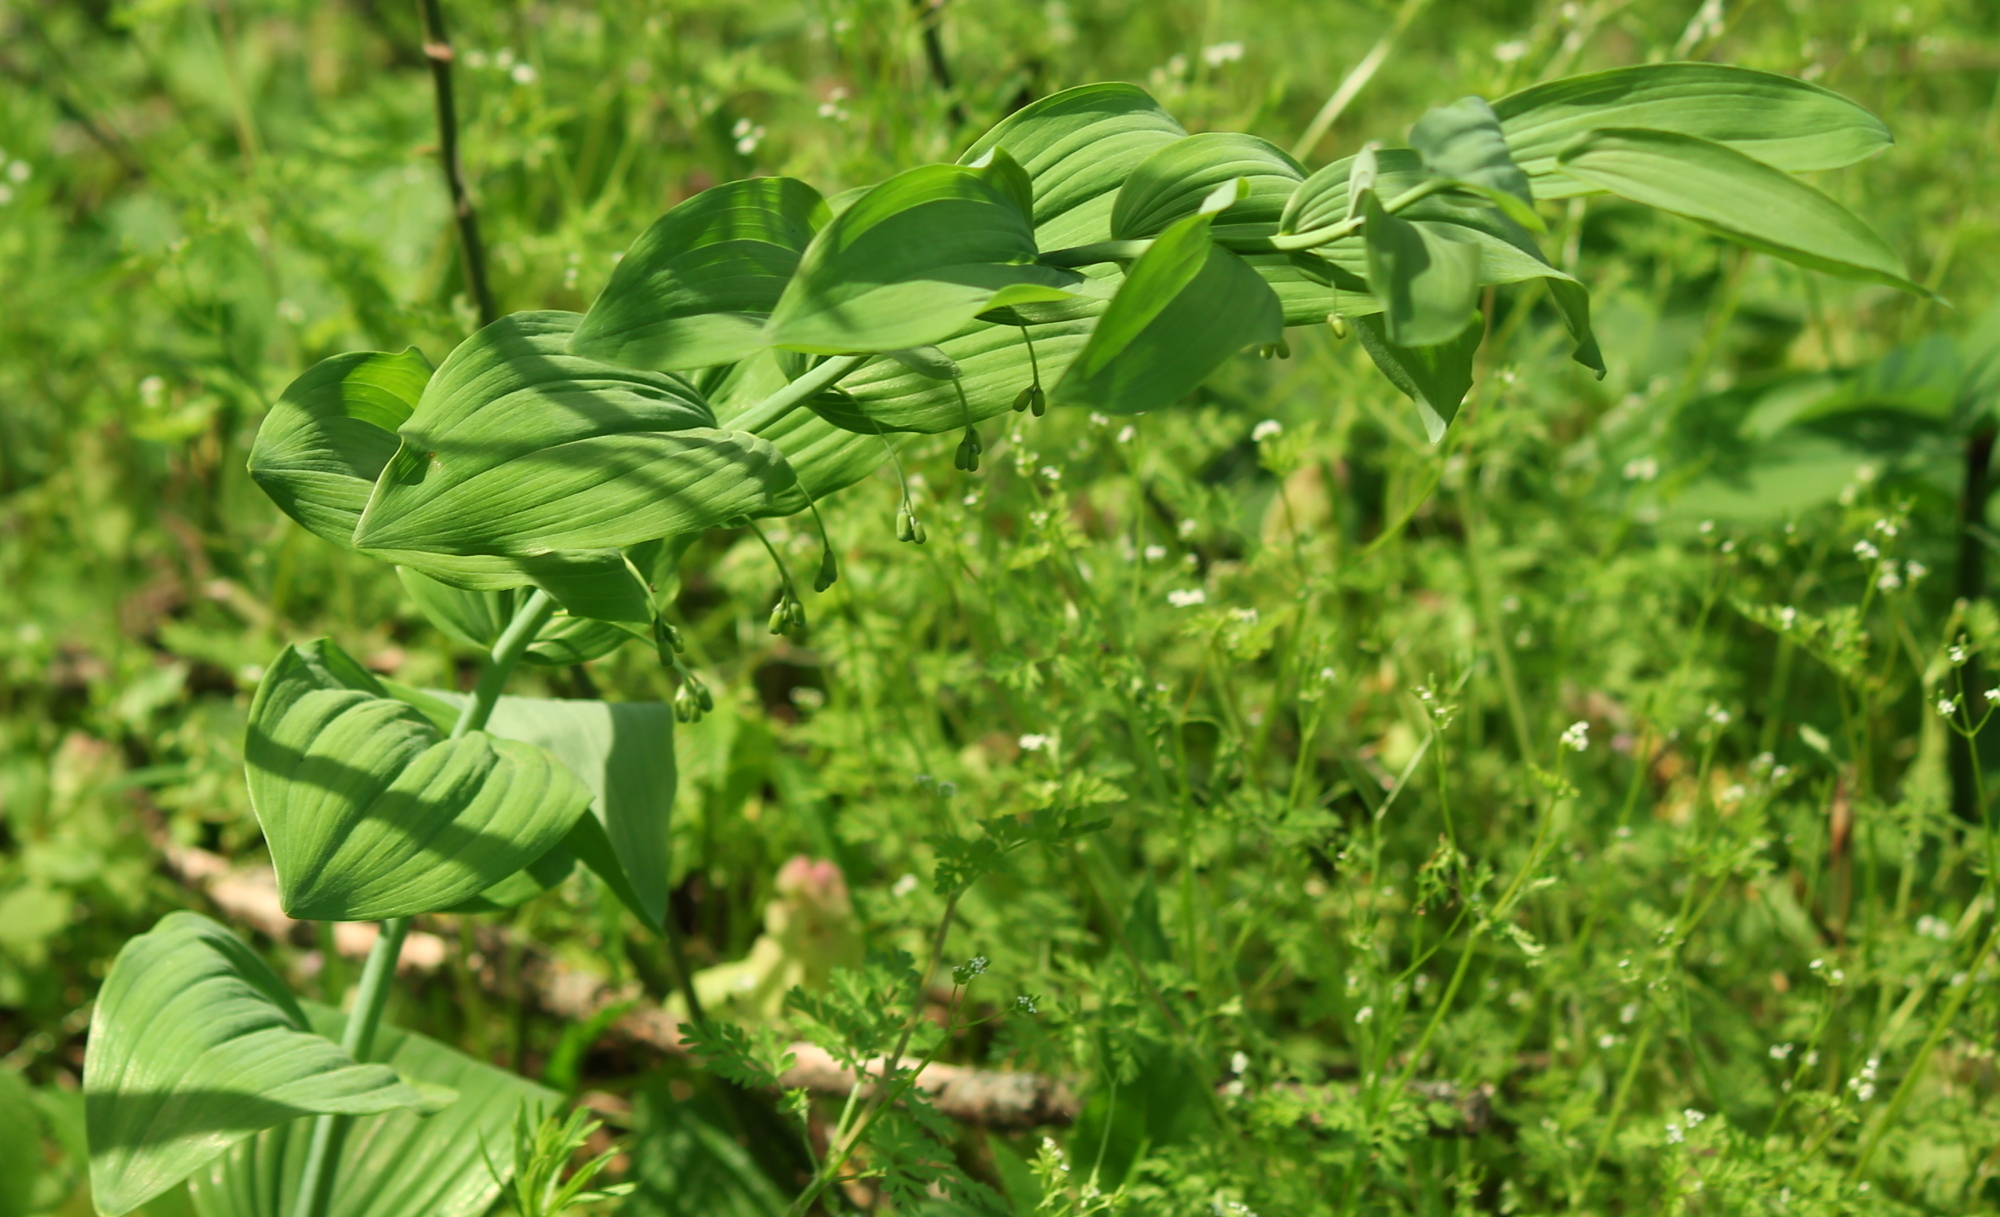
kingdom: Plantae
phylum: Tracheophyta
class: Liliopsida
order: Asparagales
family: Asparagaceae
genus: Polygonatum
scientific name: Polygonatum biflorum
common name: American solomon's-seal
